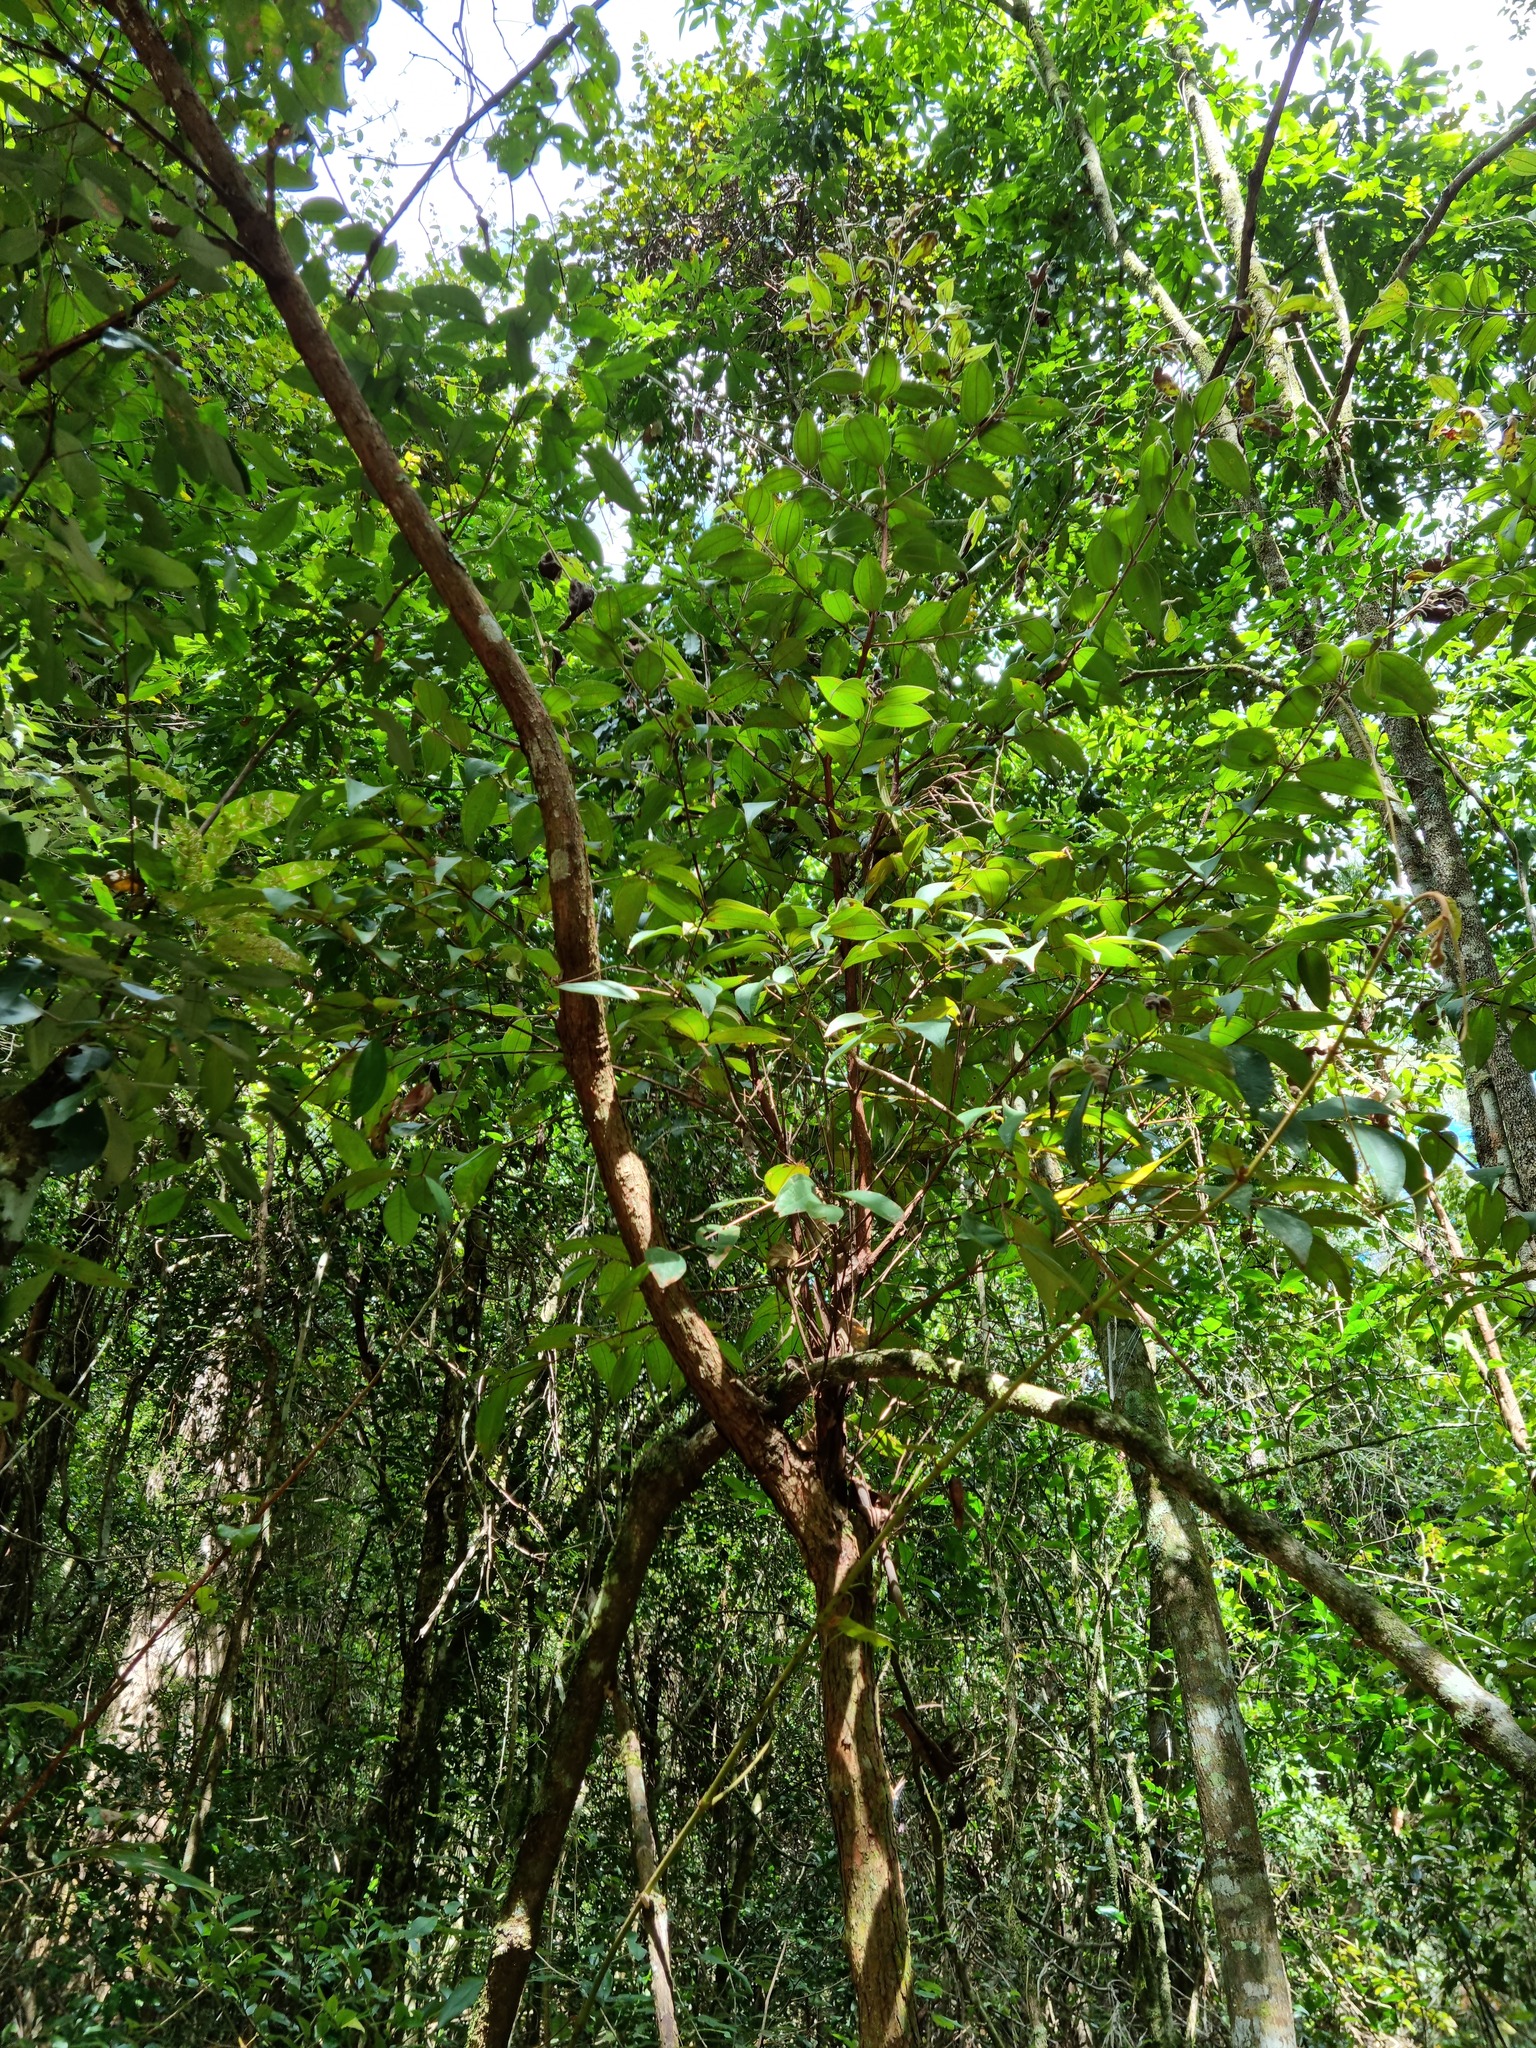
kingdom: Plantae
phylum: Tracheophyta
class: Magnoliopsida
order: Myrtales
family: Myrtaceae
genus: Rhodamnia
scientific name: Rhodamnia rubescens
